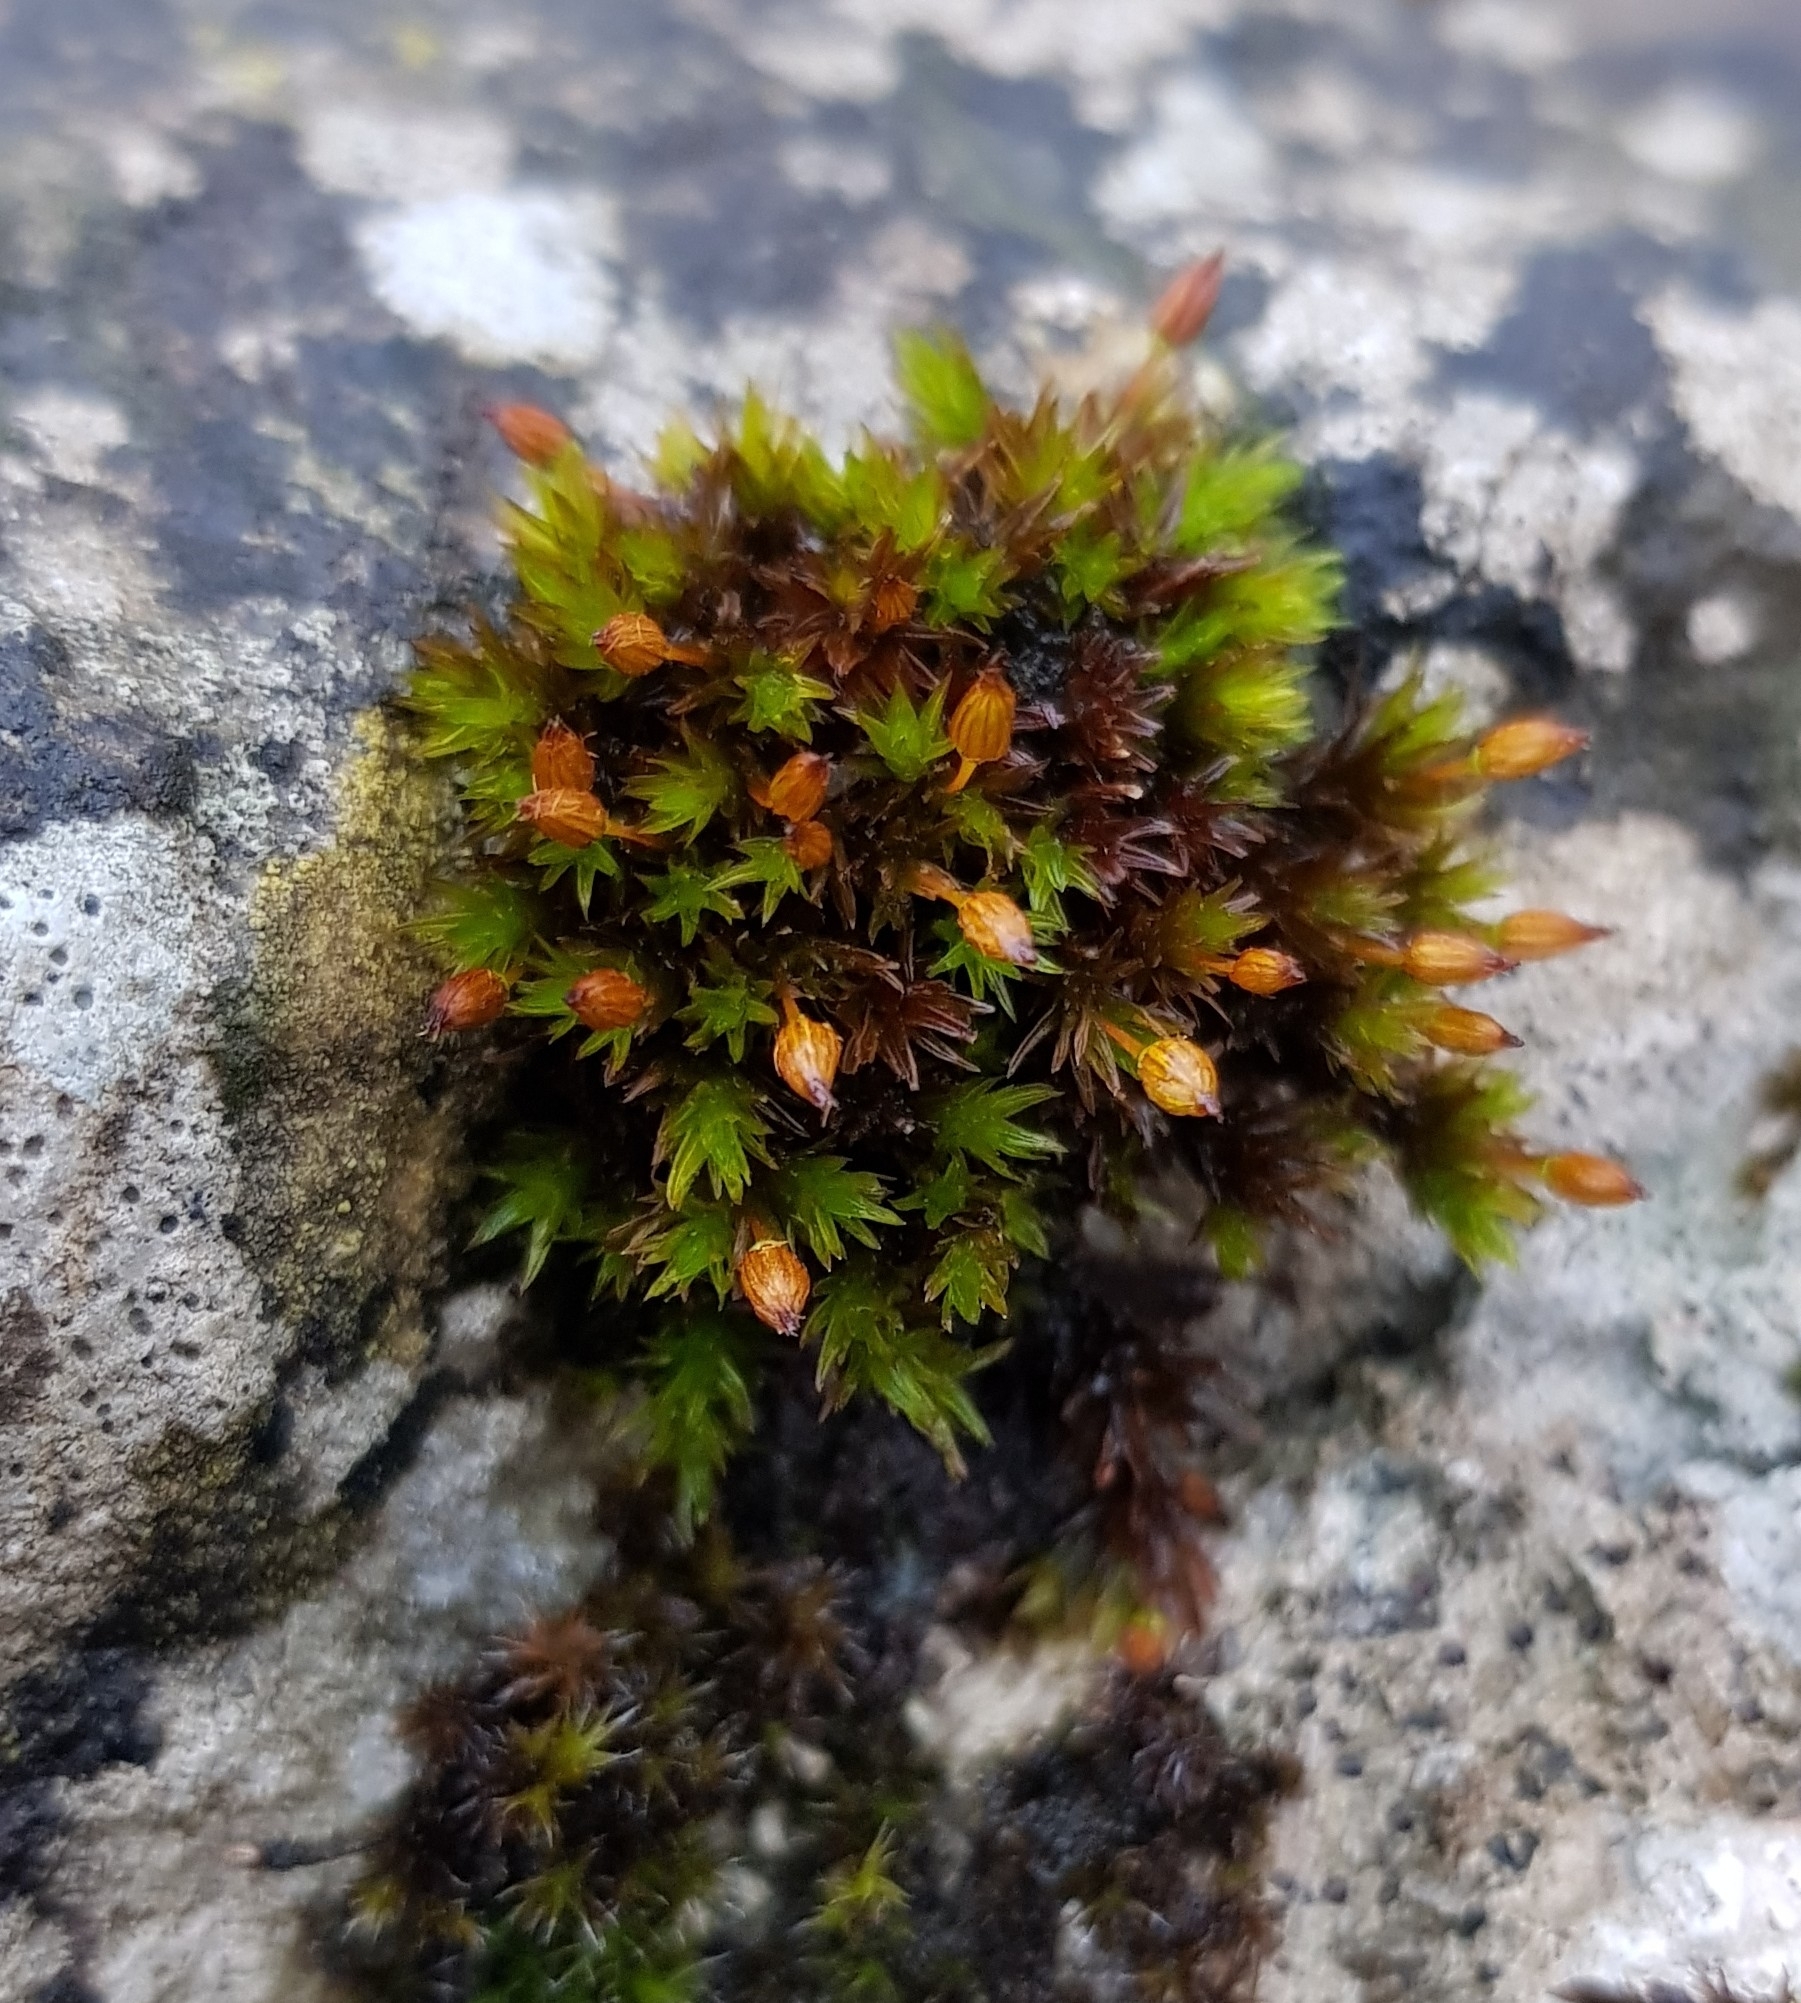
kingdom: Plantae
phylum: Bryophyta
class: Bryopsida
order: Orthotrichales
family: Orthotrichaceae
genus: Orthotrichum
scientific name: Orthotrichum anomalum
